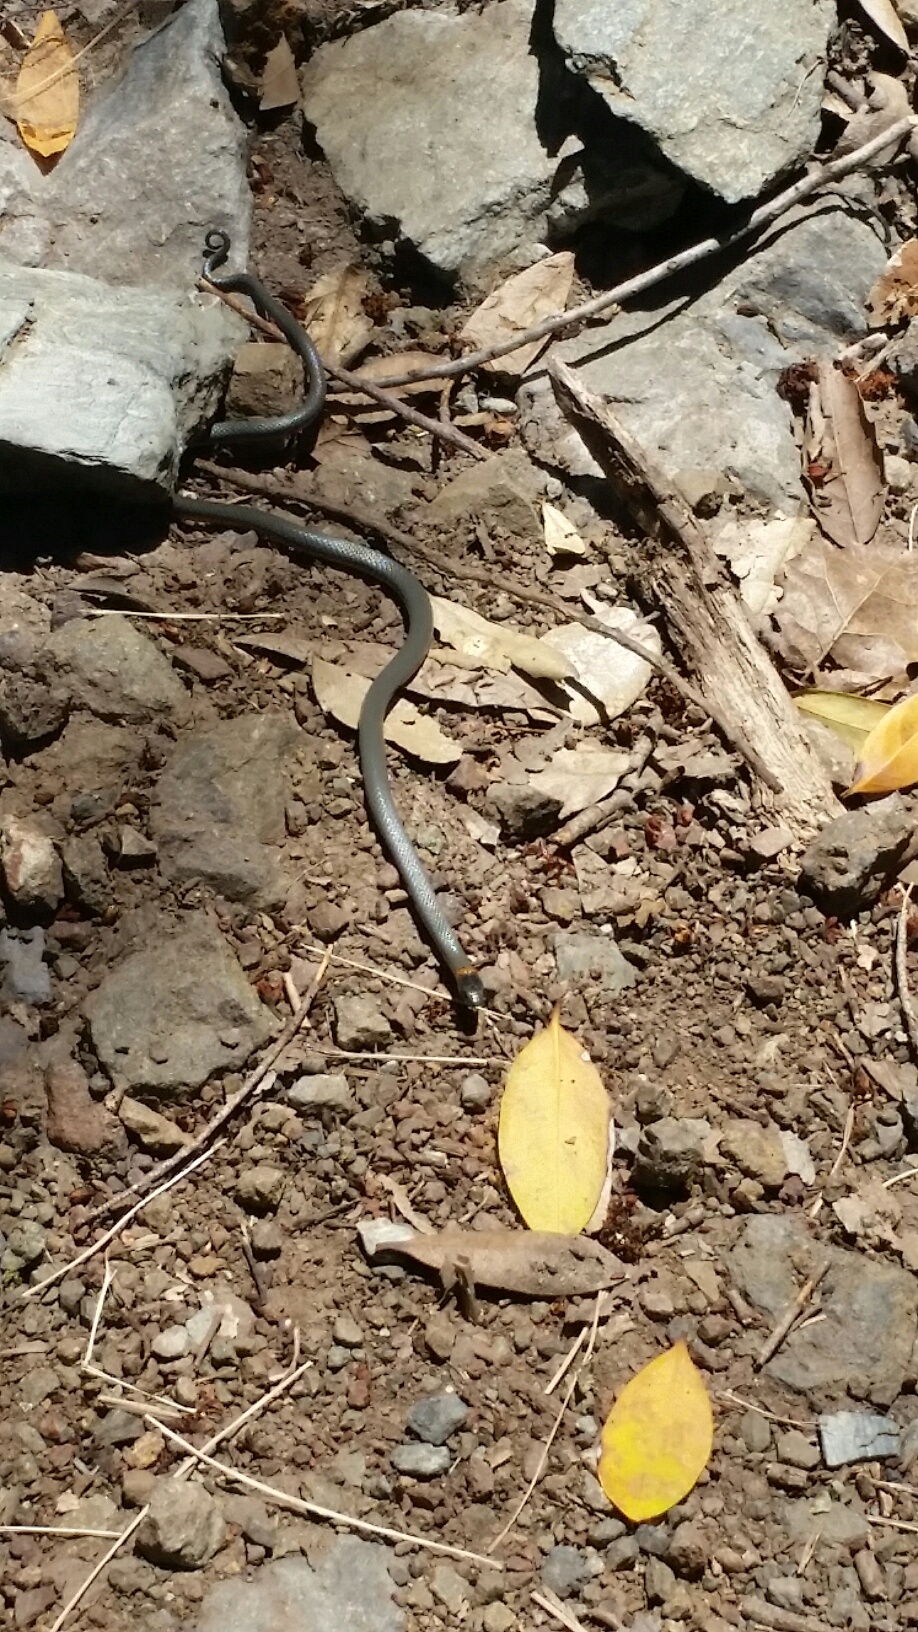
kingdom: Animalia
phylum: Chordata
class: Squamata
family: Colubridae
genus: Diadophis
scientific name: Diadophis punctatus
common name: Ringneck snake
